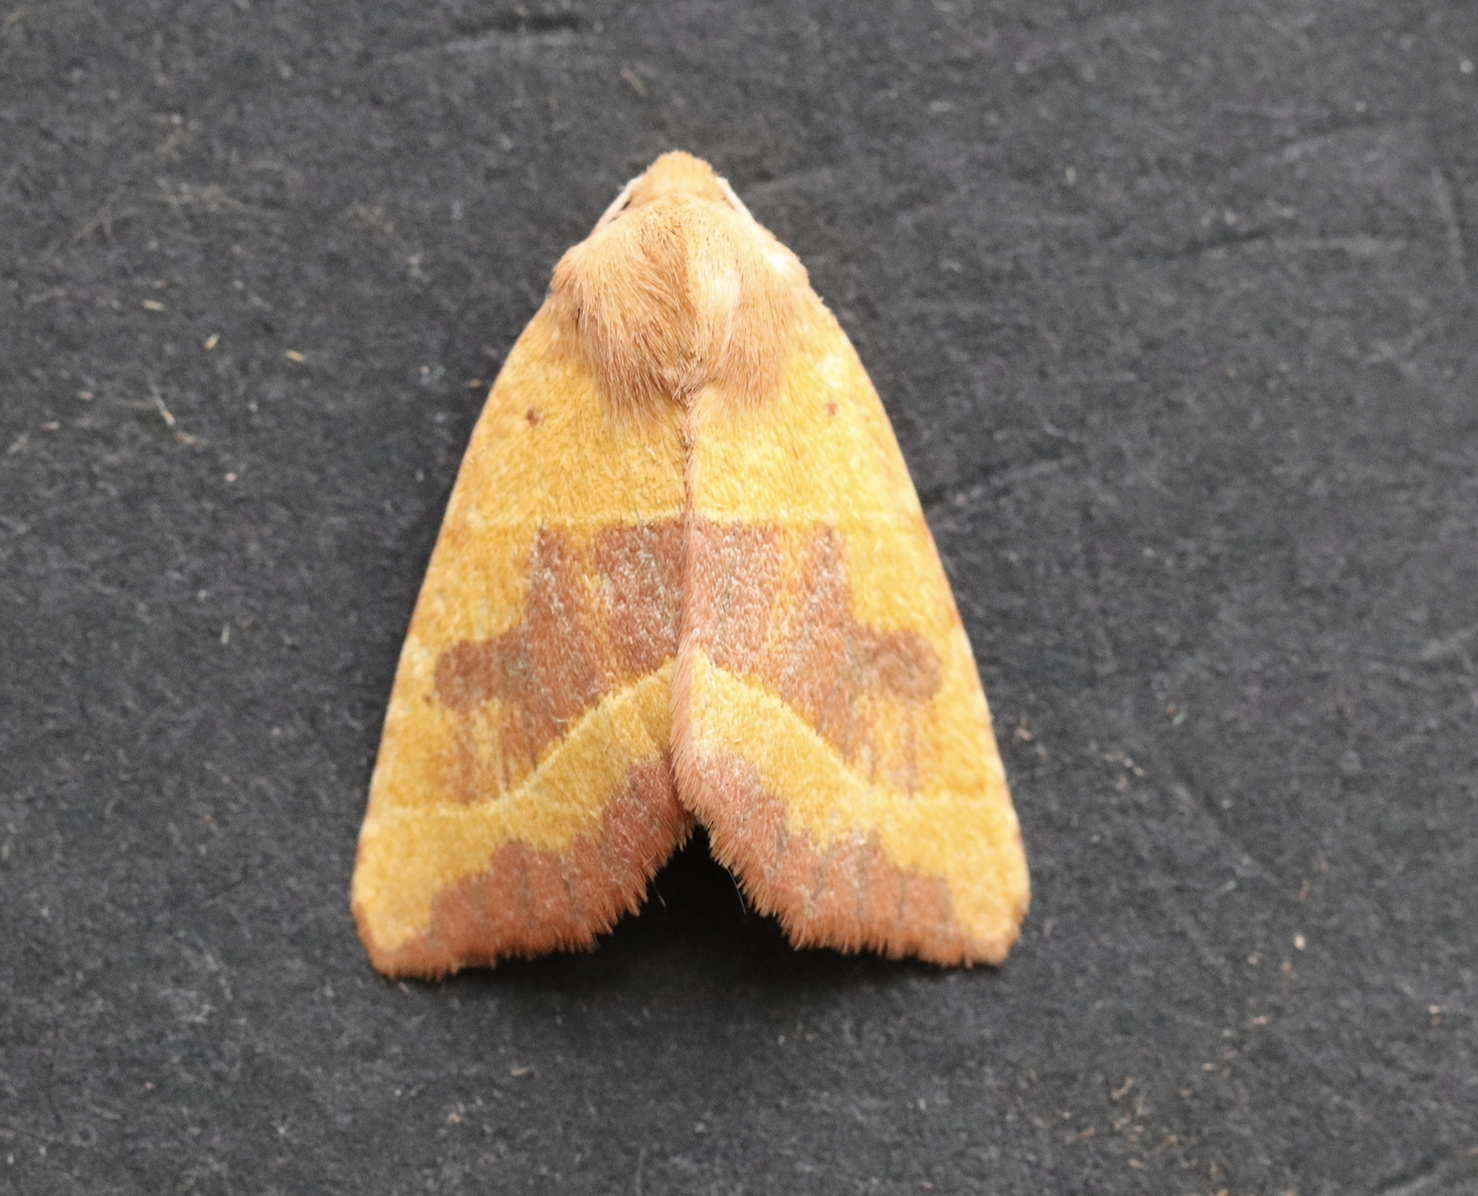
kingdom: Animalia
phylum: Arthropoda
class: Insecta
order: Lepidoptera
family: Noctuidae
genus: Atethmia
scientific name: Atethmia centrago
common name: Centre-barred sallow
